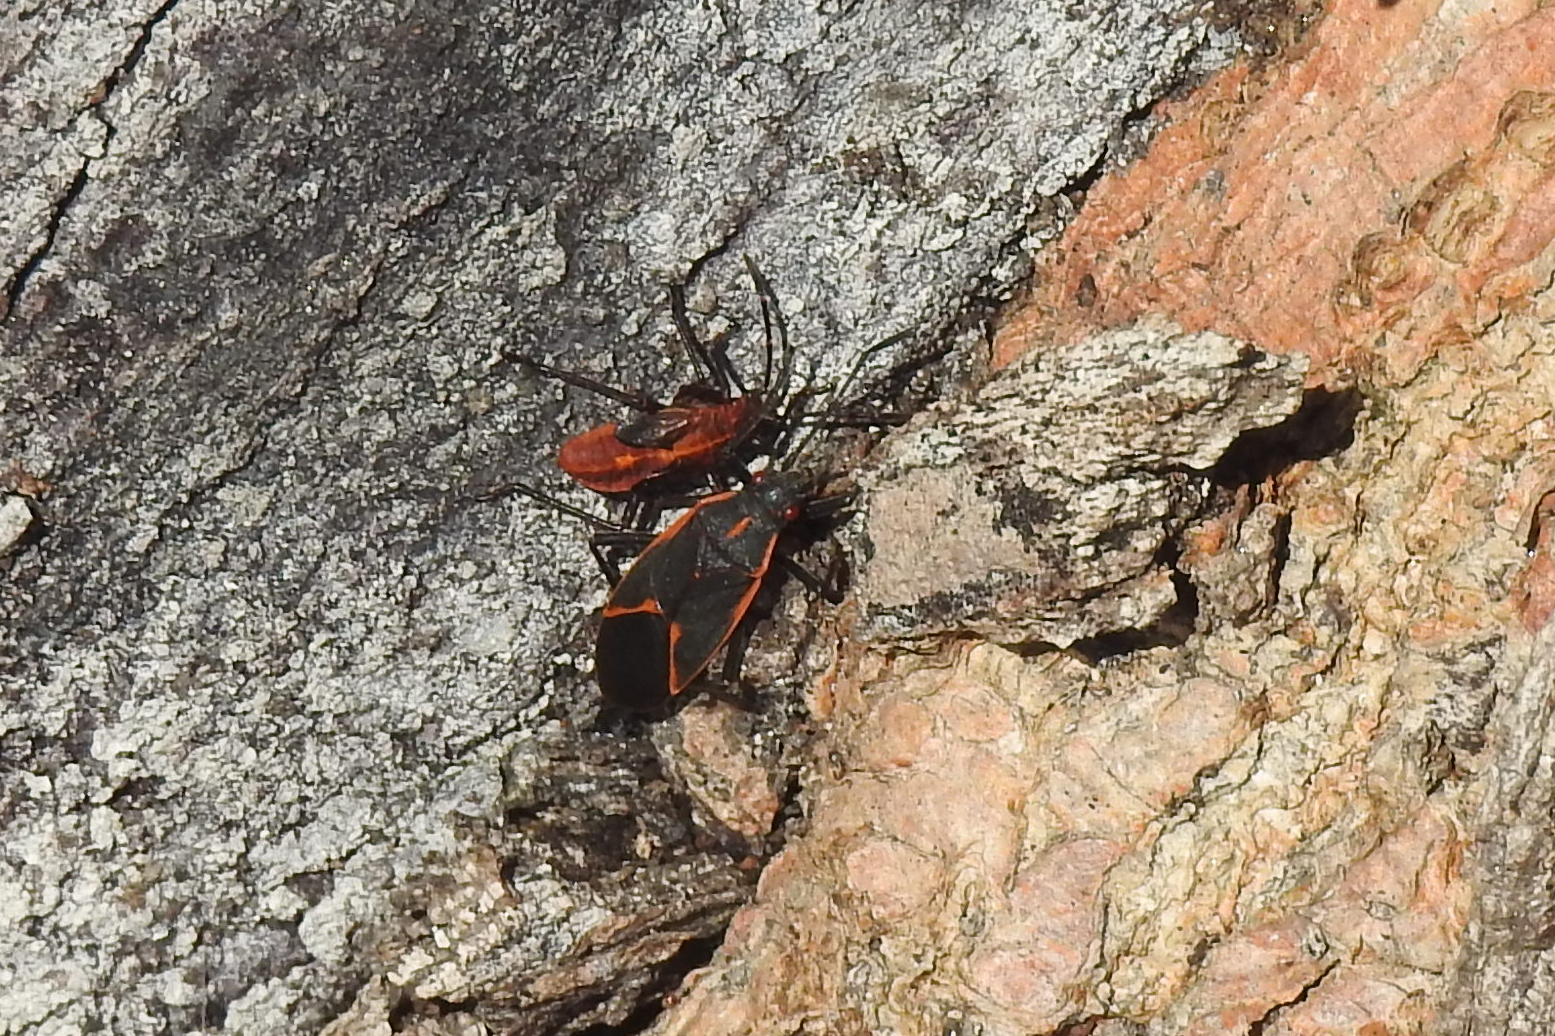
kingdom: Animalia
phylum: Arthropoda
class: Insecta
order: Hemiptera
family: Rhopalidae
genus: Boisea
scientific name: Boisea trivittata
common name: Boxelder bug
